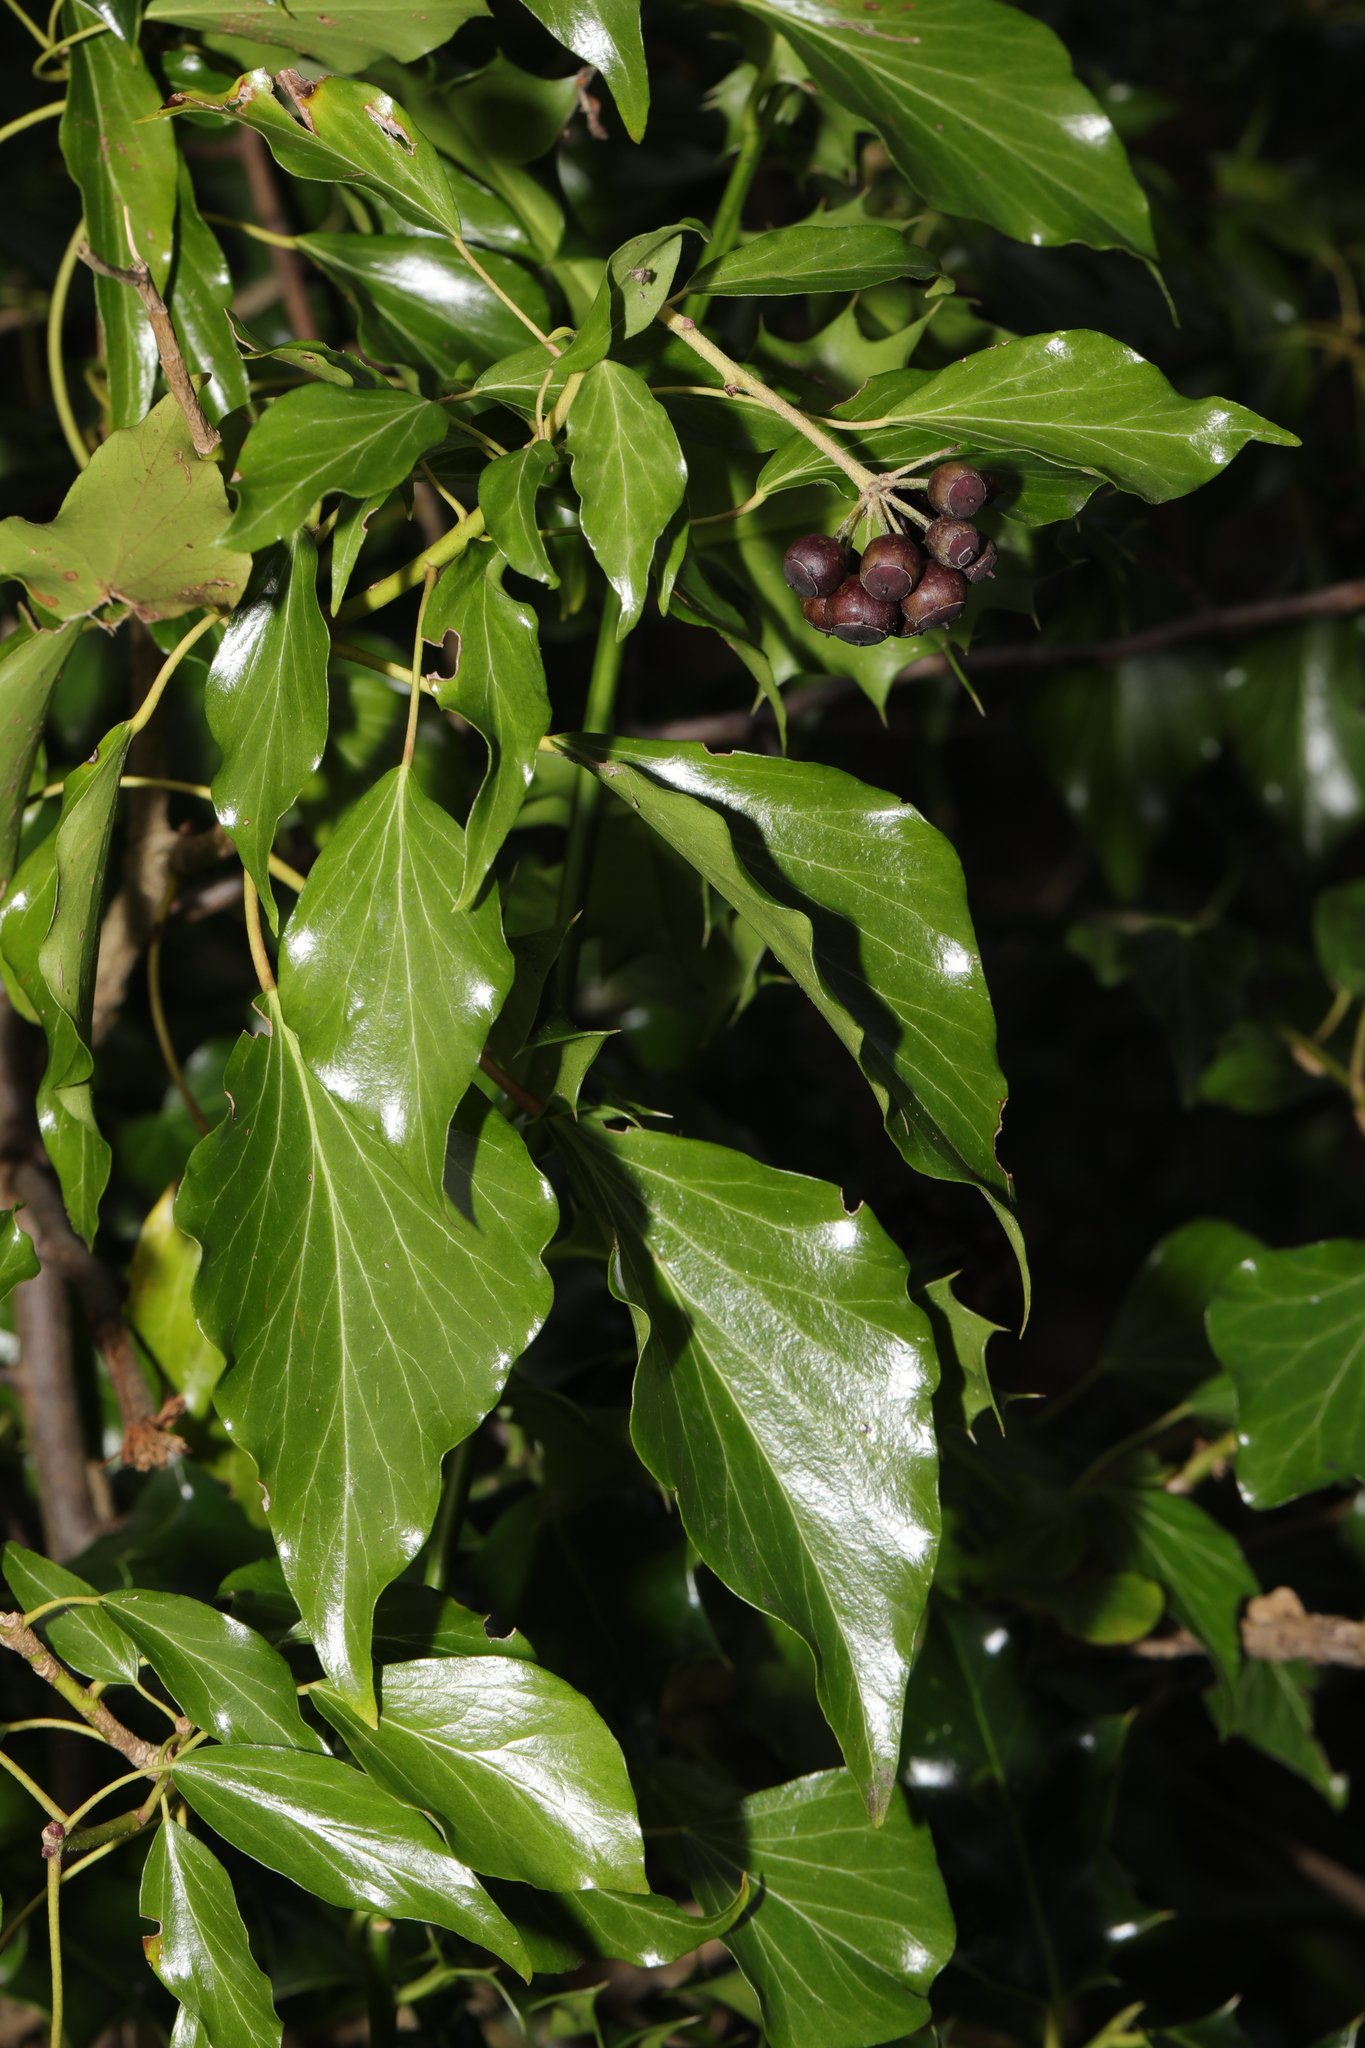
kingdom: Plantae
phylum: Tracheophyta
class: Magnoliopsida
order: Apiales
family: Araliaceae
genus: Hedera
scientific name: Hedera helix
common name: Ivy
